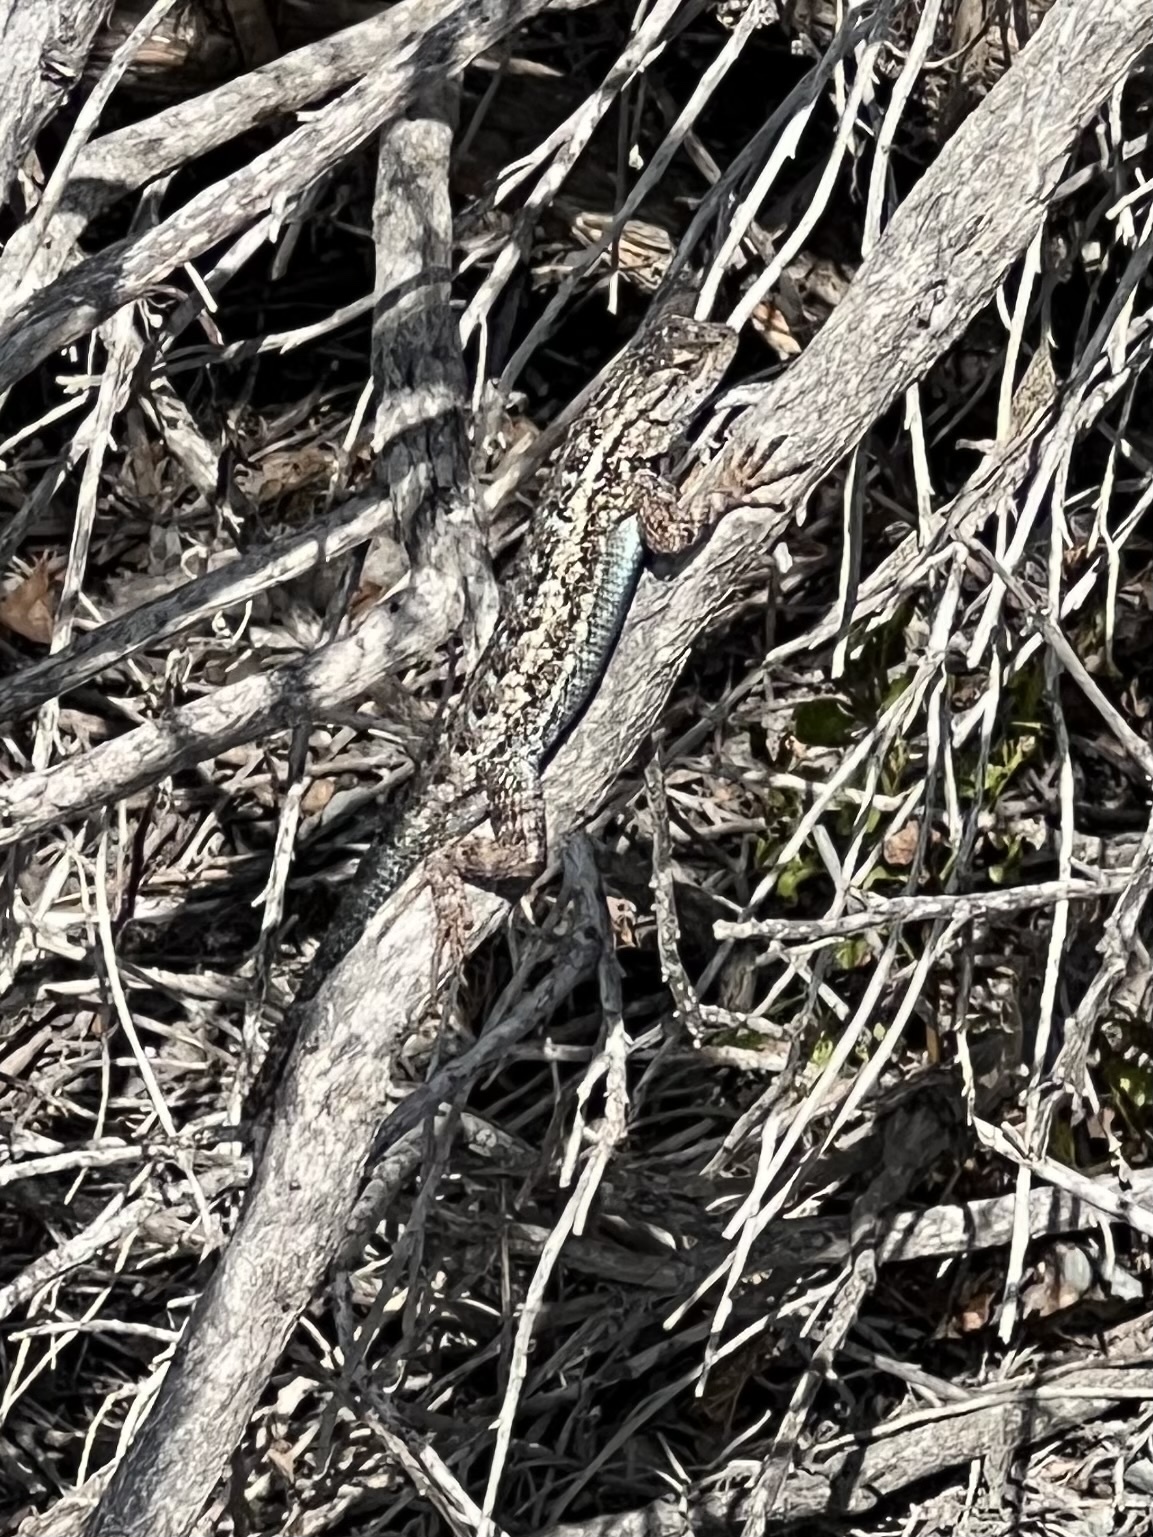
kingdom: Animalia
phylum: Chordata
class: Squamata
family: Phrynosomatidae
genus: Sceloporus
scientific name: Sceloporus occidentalis
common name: Western fence lizard
